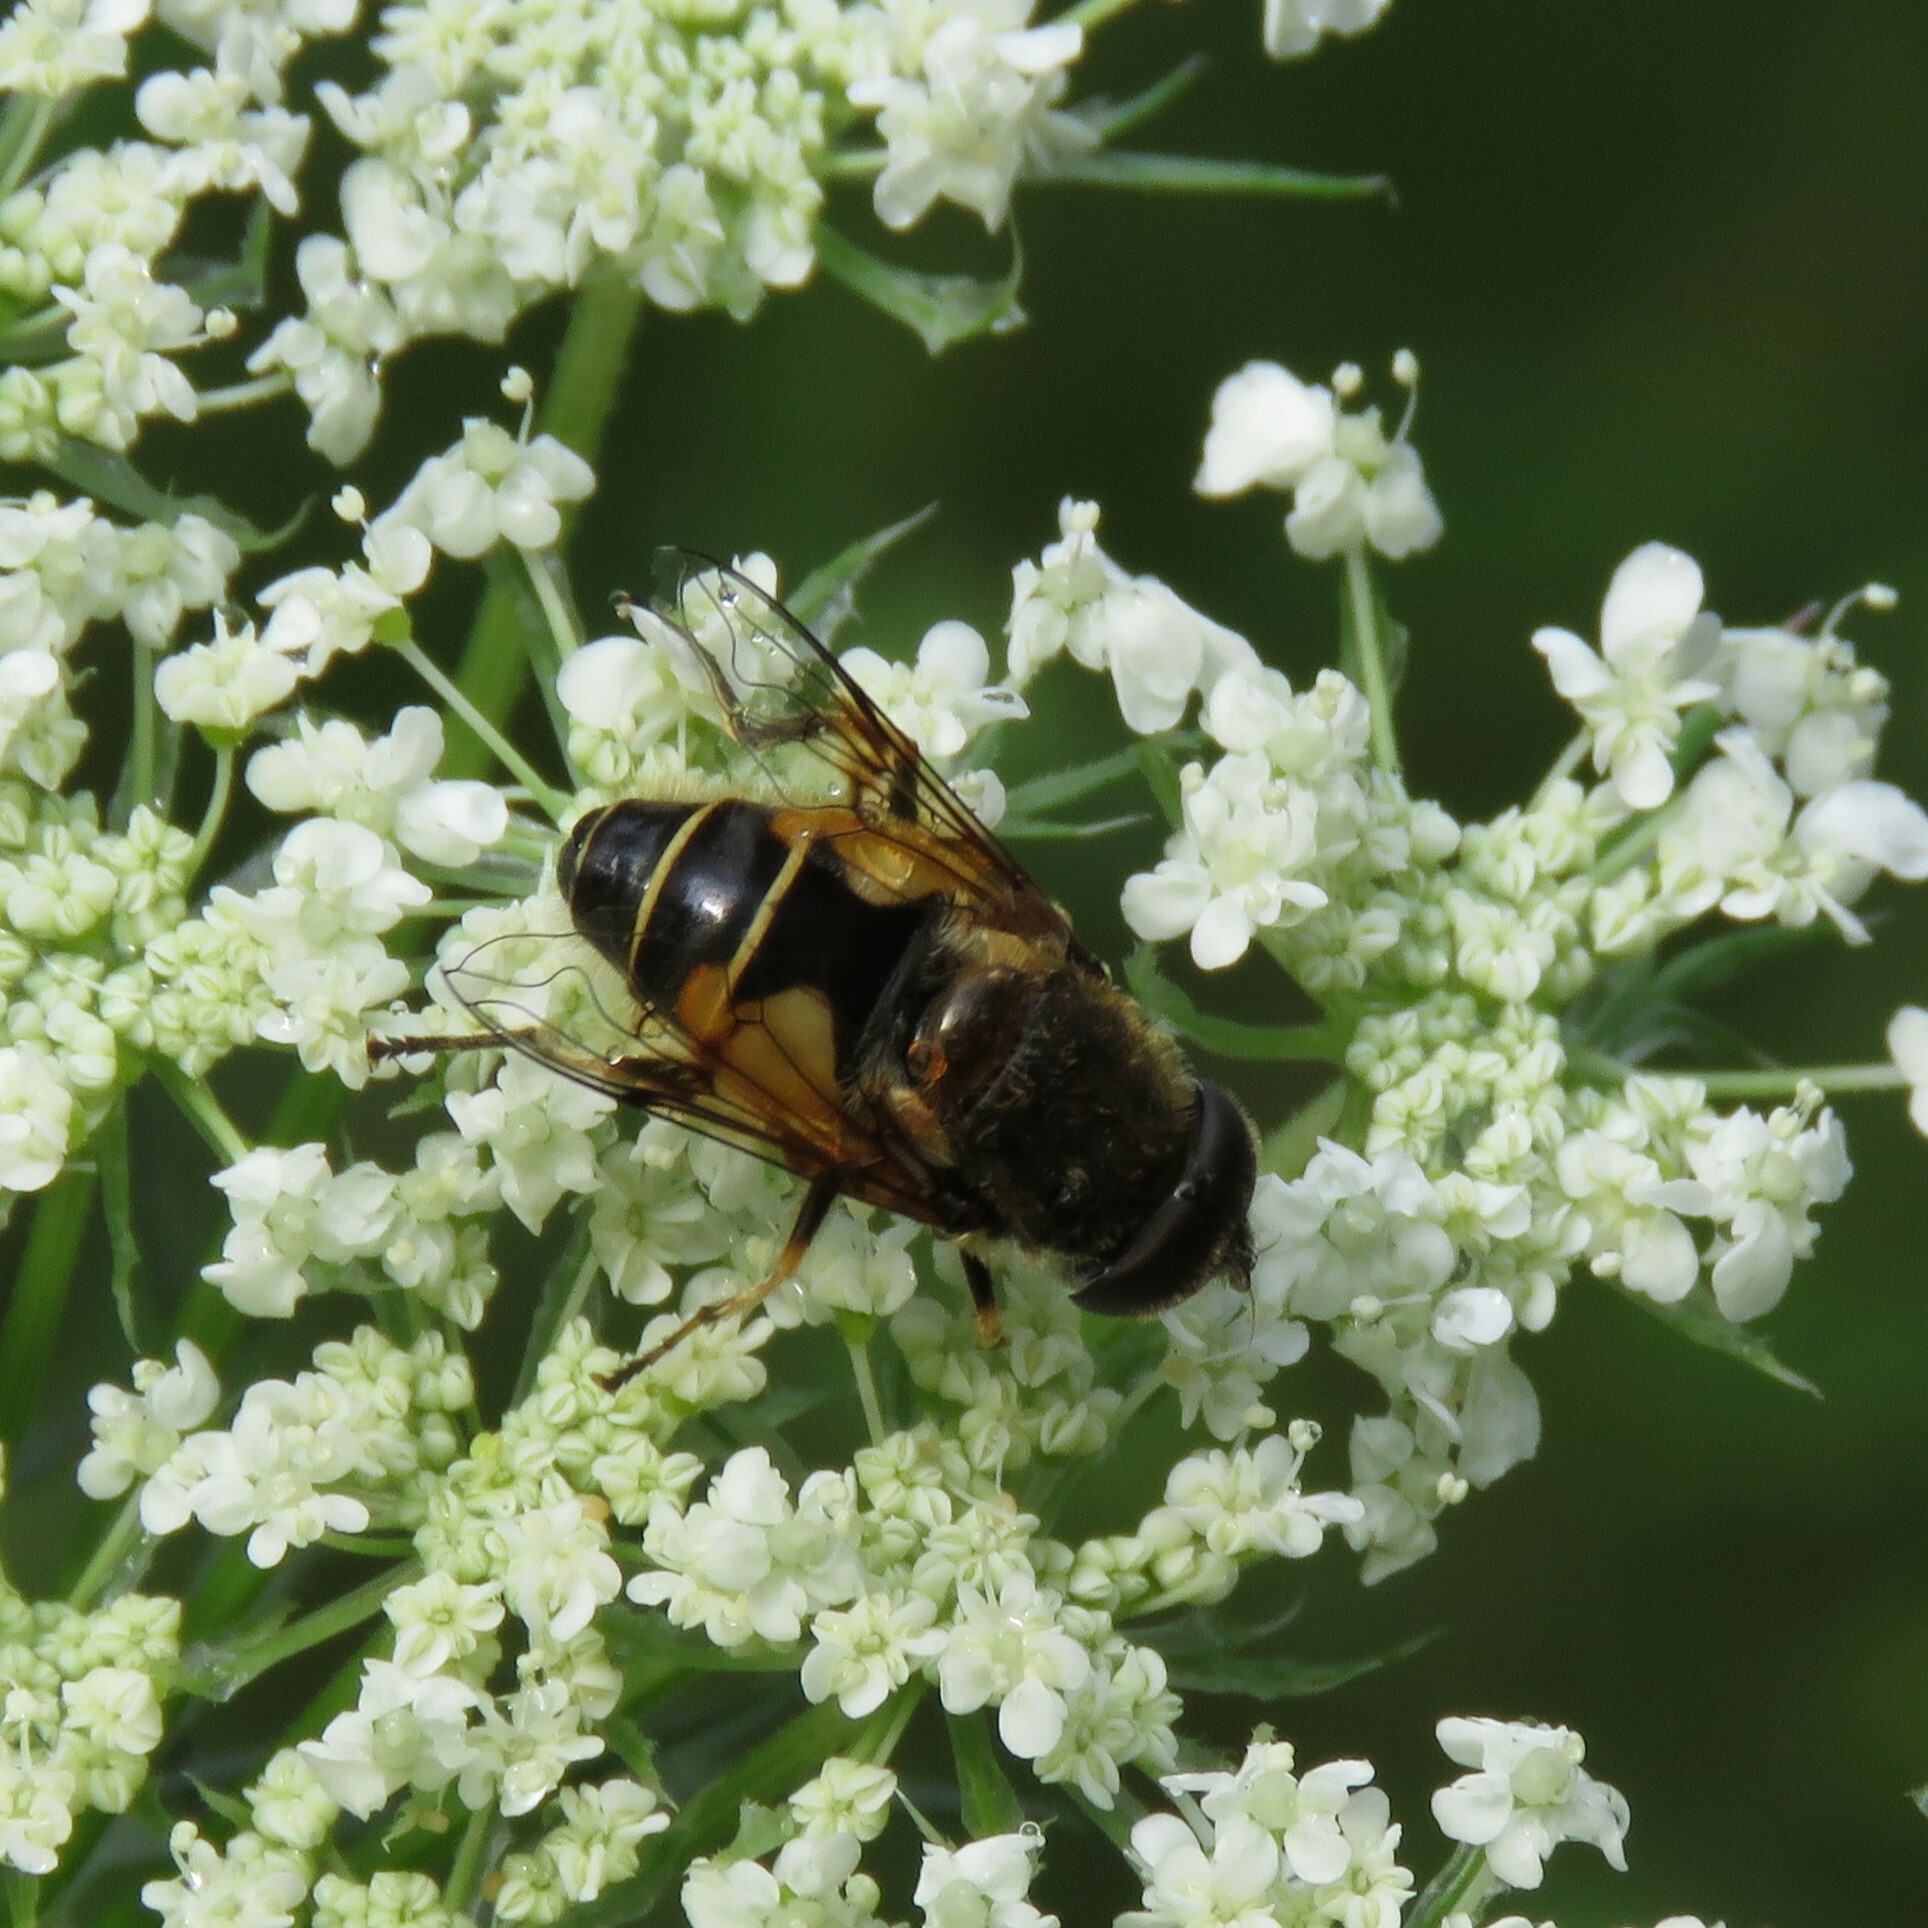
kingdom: Animalia
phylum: Arthropoda
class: Insecta
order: Diptera
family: Syrphidae
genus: Cheilosia
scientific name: Cheilosia morio
